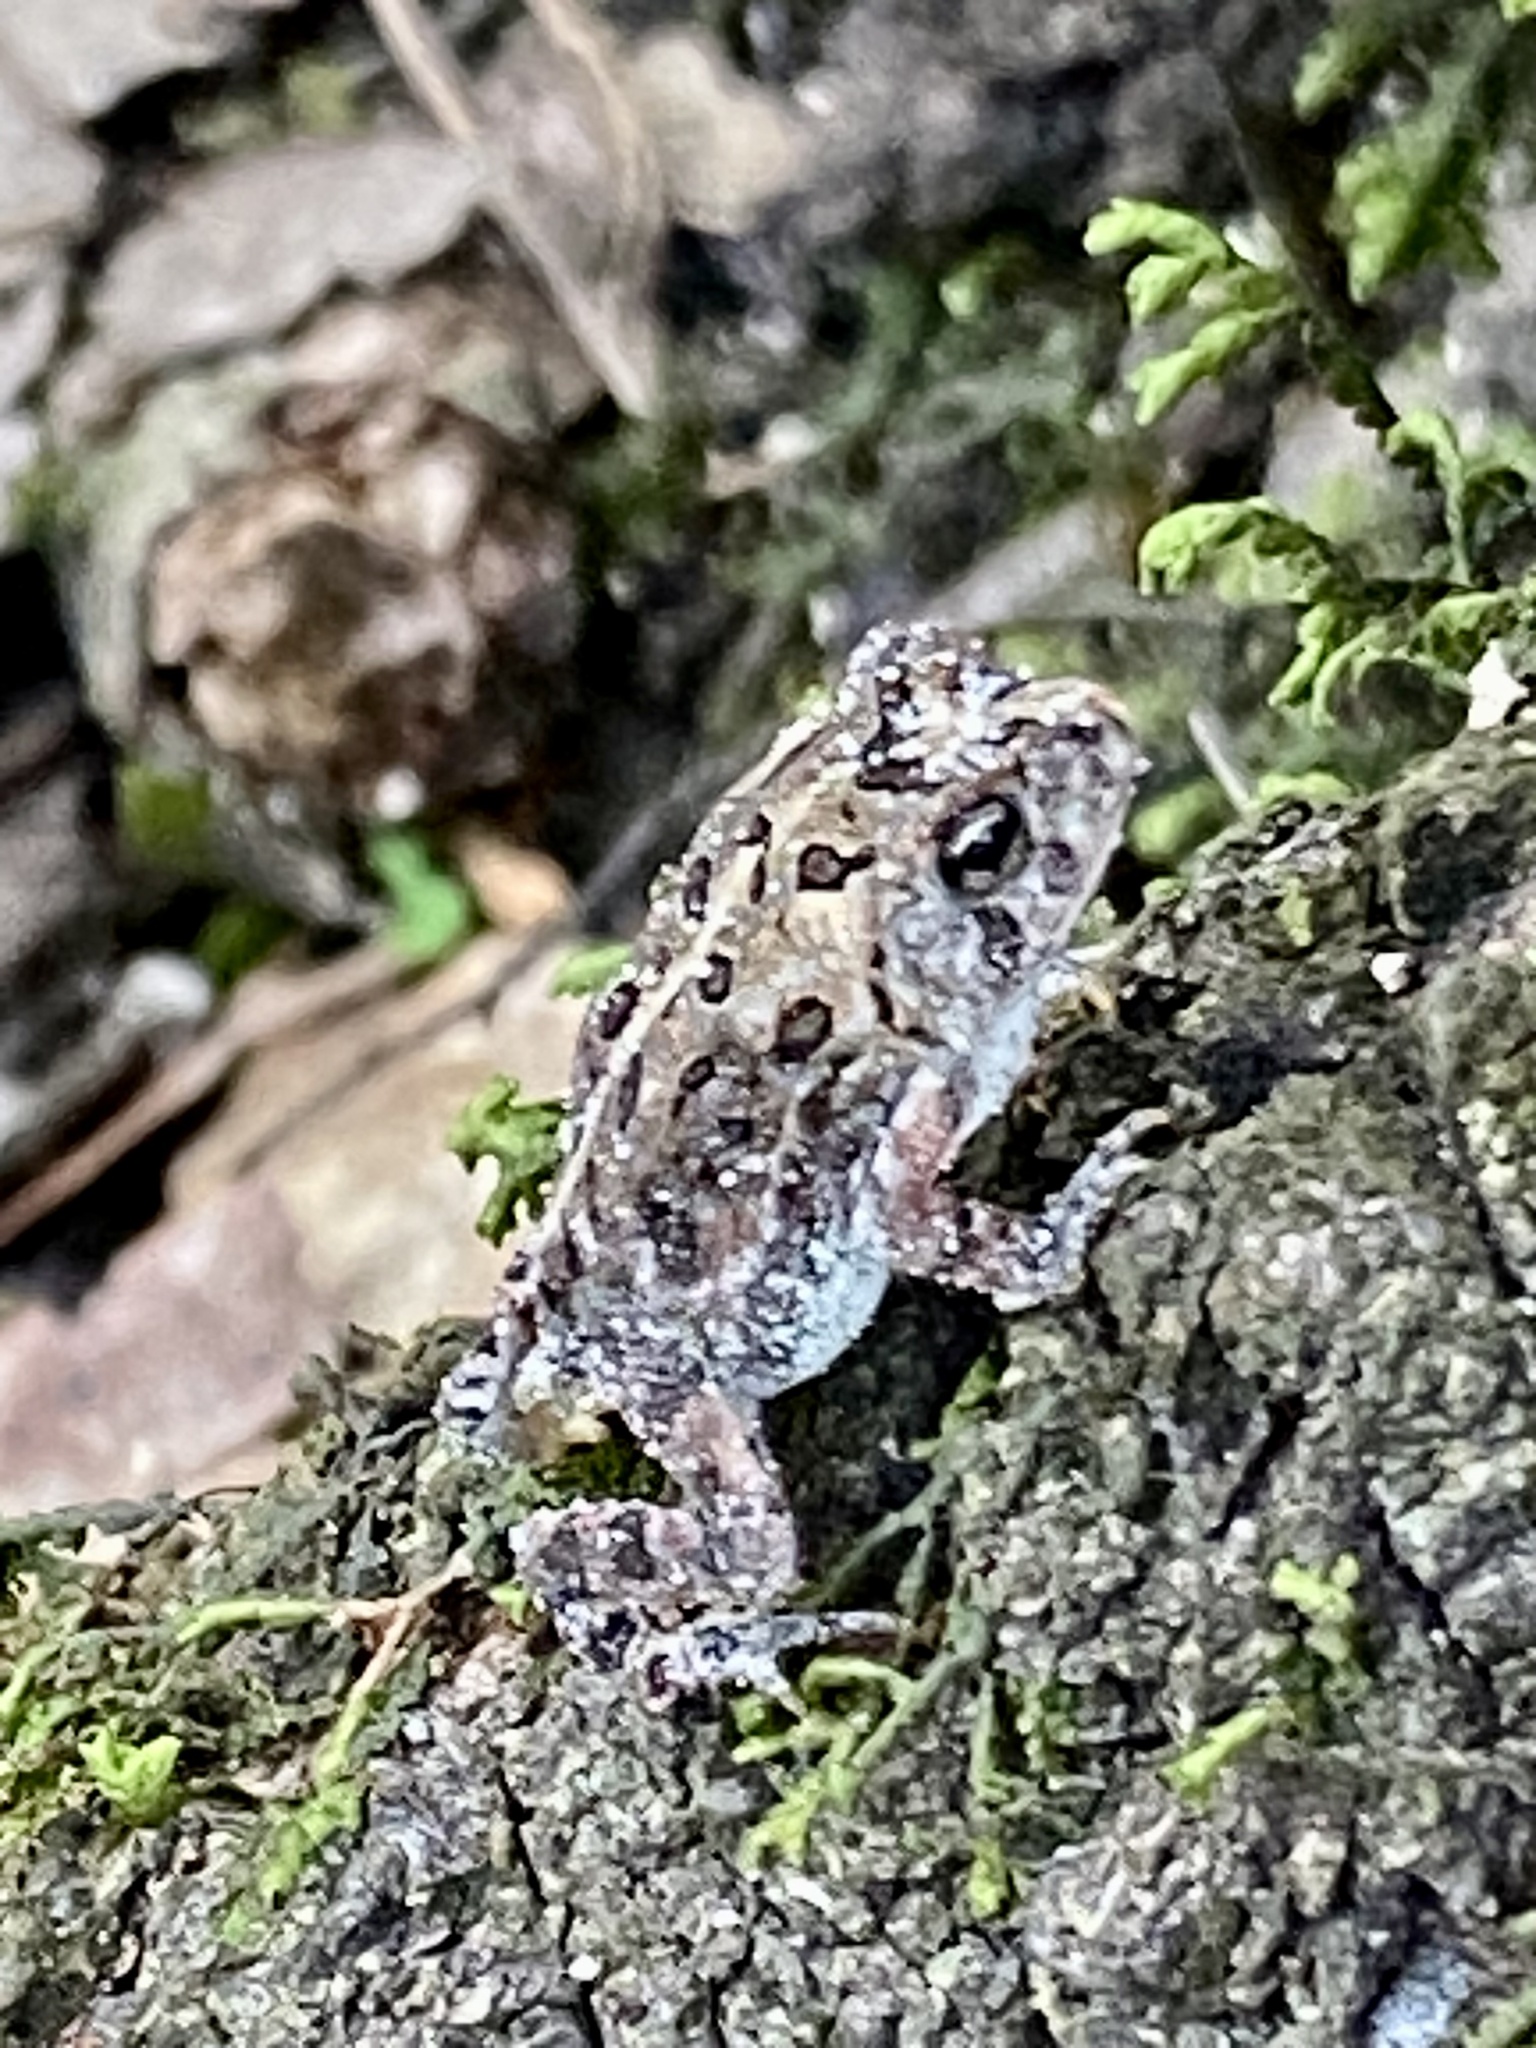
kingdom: Animalia
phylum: Chordata
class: Amphibia
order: Anura
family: Bufonidae
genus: Anaxyrus
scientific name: Anaxyrus terrestris
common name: Southern toad
